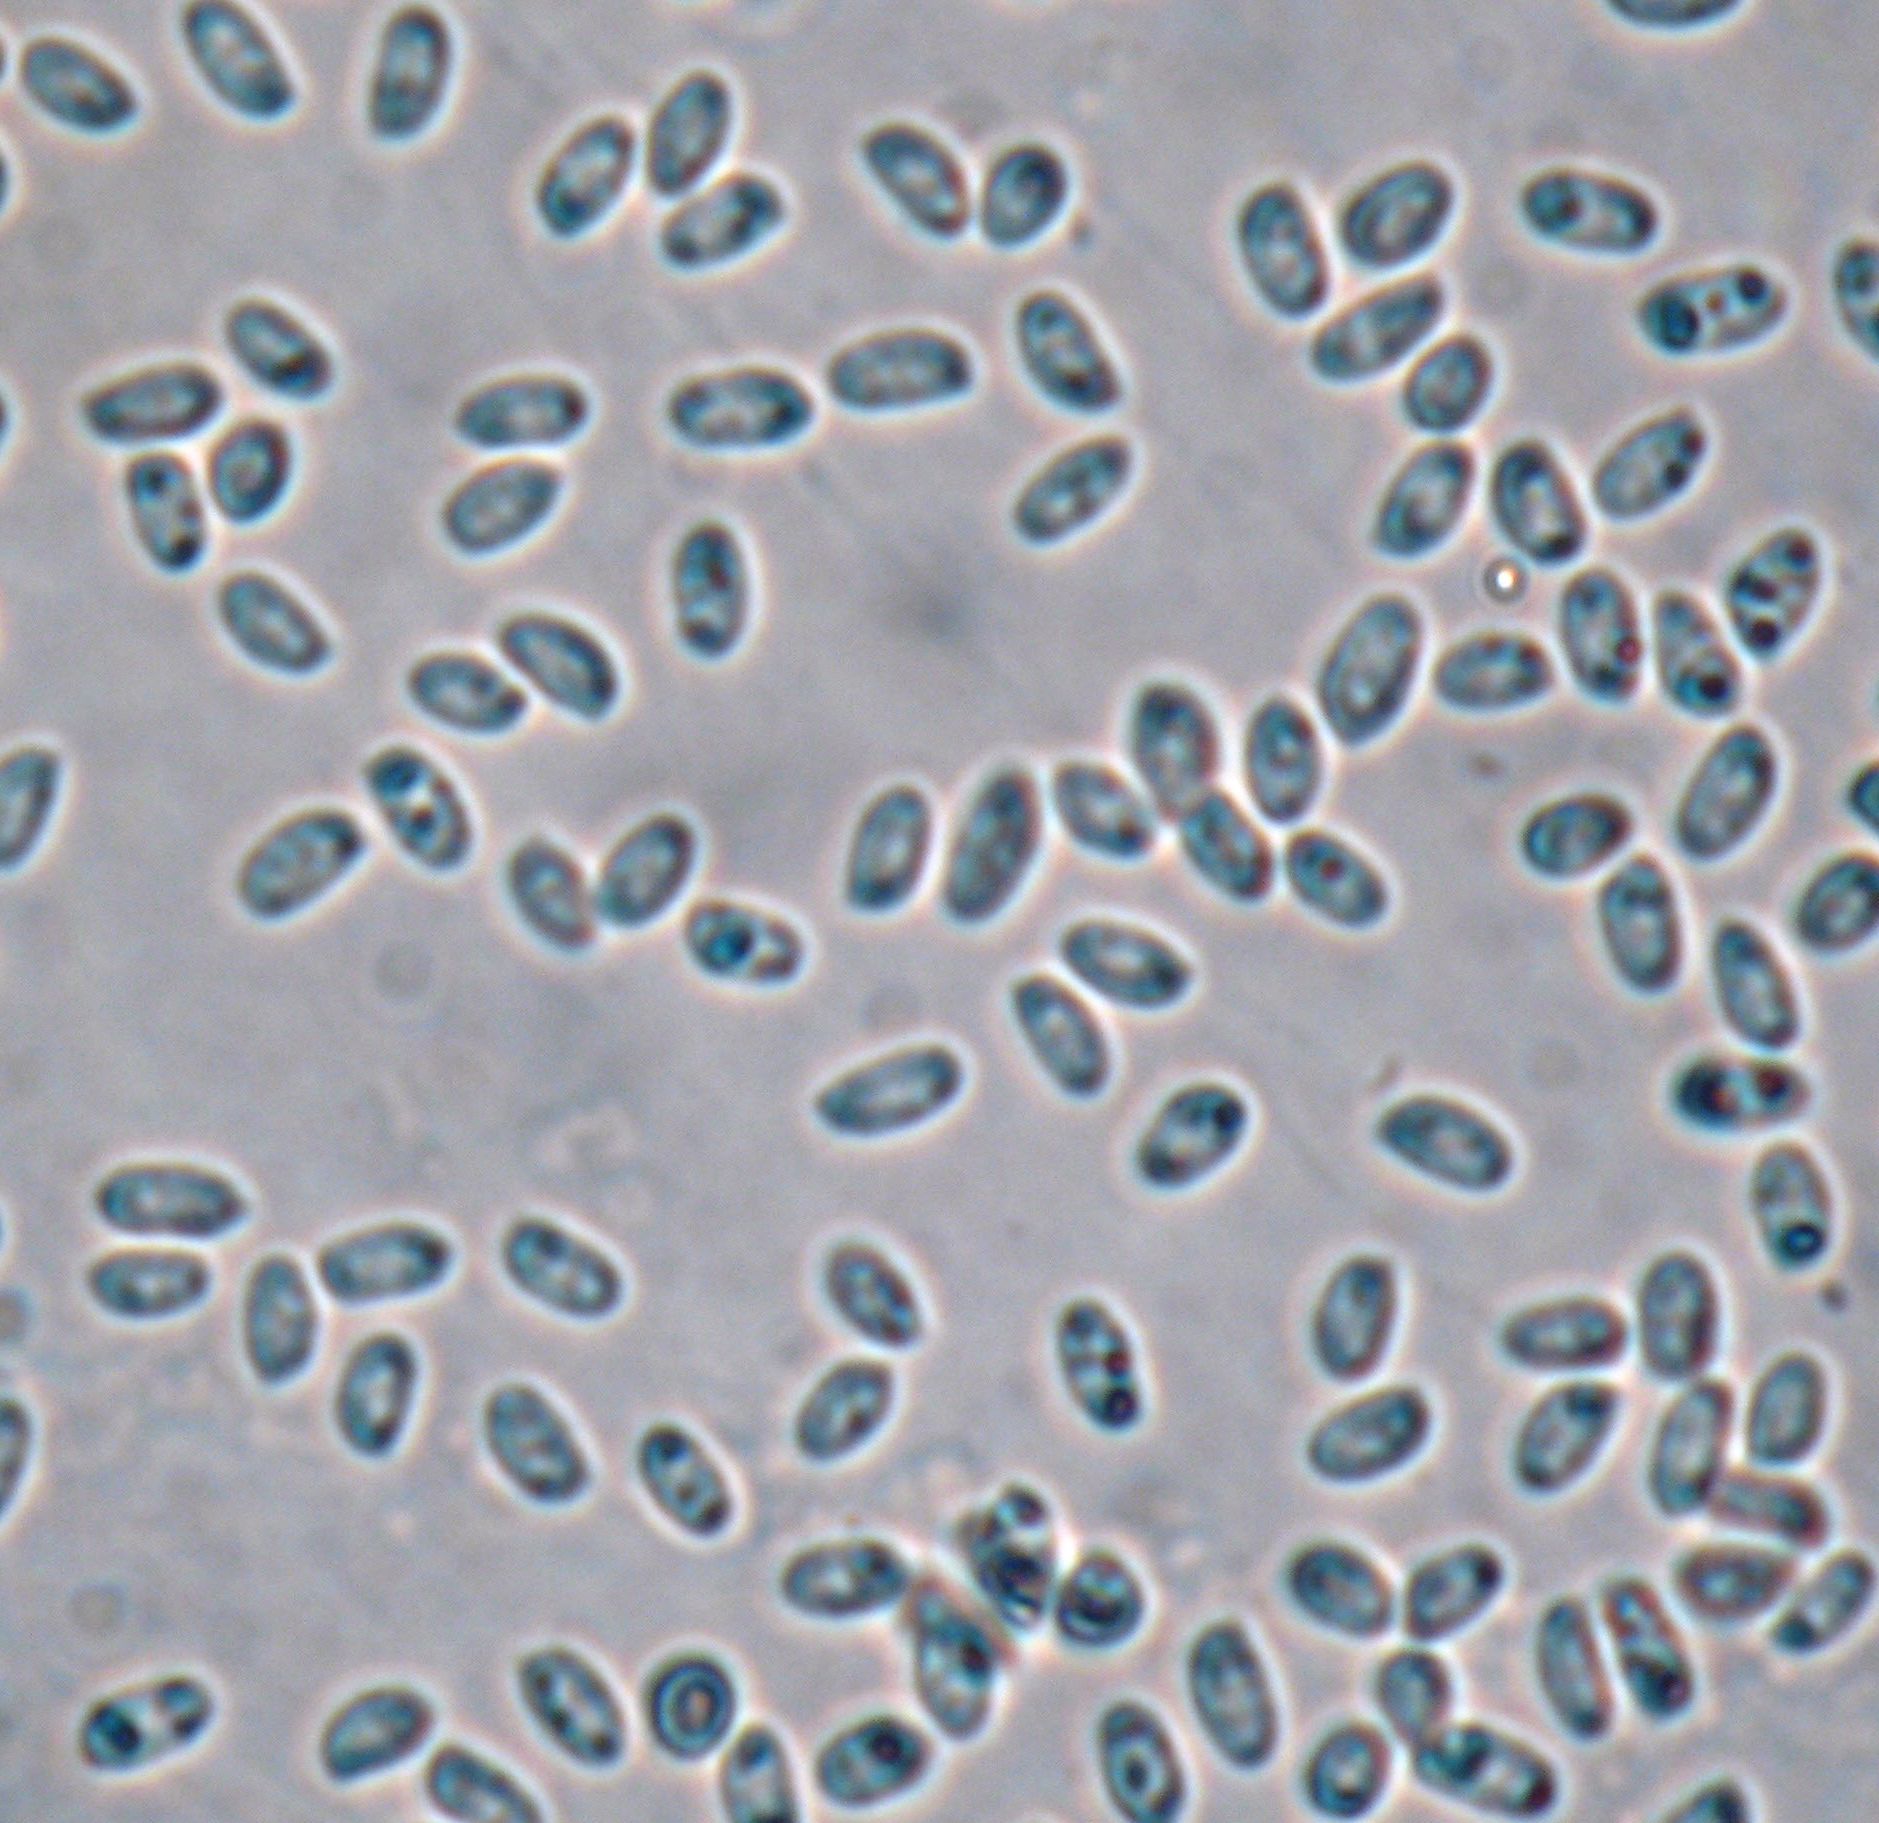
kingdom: Fungi
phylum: Basidiomycota
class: Agaricomycetes
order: Agaricales
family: Physalacriaceae
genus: Flammulina
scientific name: Flammulina velutipes
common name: Velvet shank
